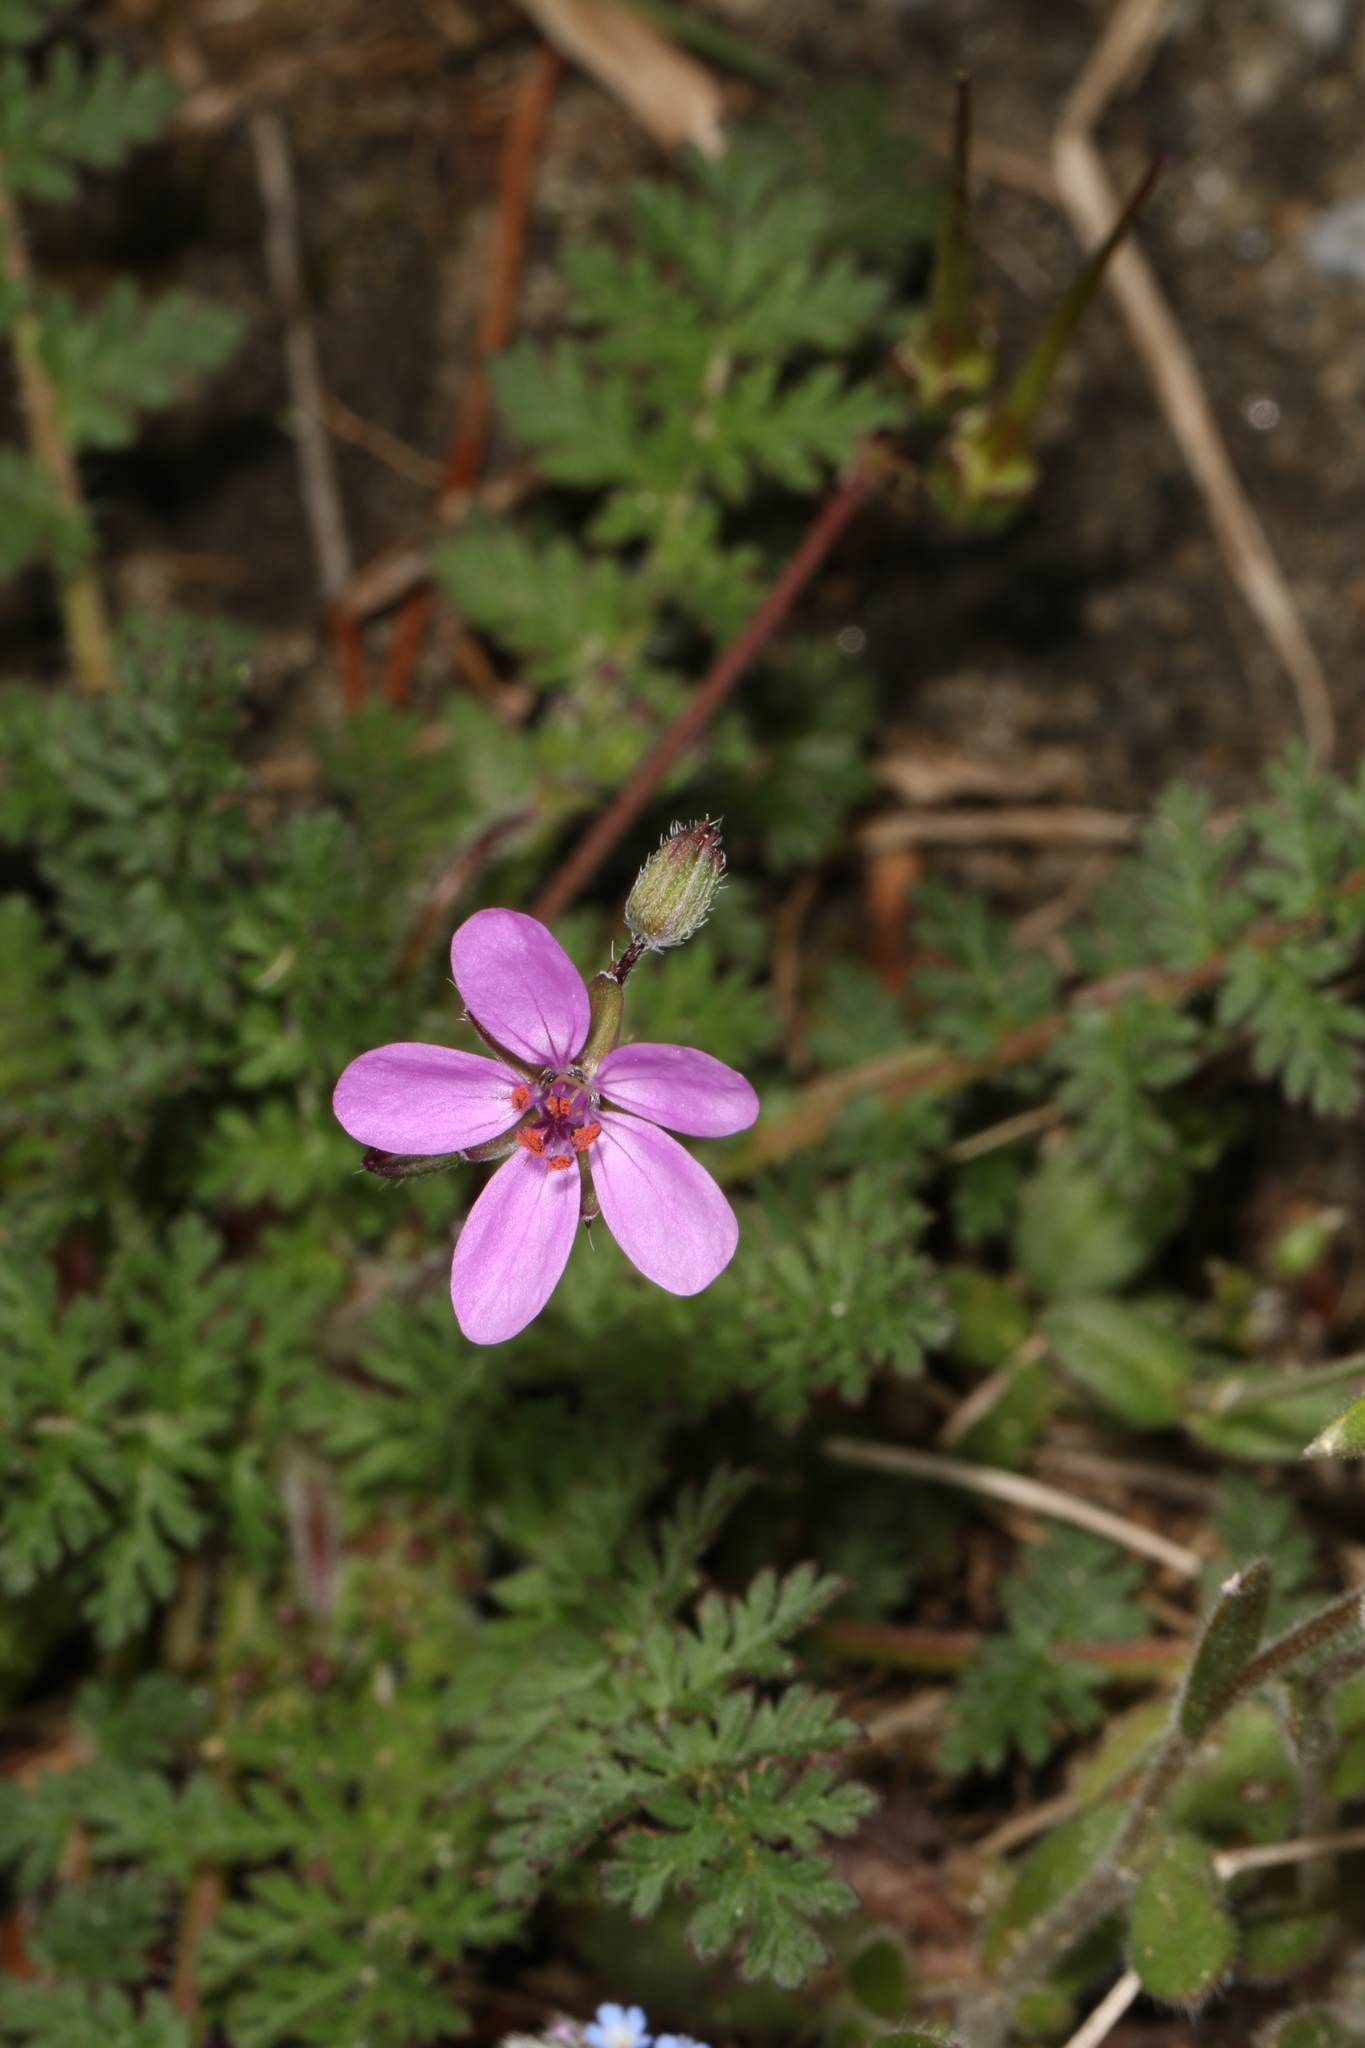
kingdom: Plantae
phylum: Tracheophyta
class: Magnoliopsida
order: Geraniales
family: Geraniaceae
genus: Erodium
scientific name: Erodium cicutarium
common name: Common stork's-bill
